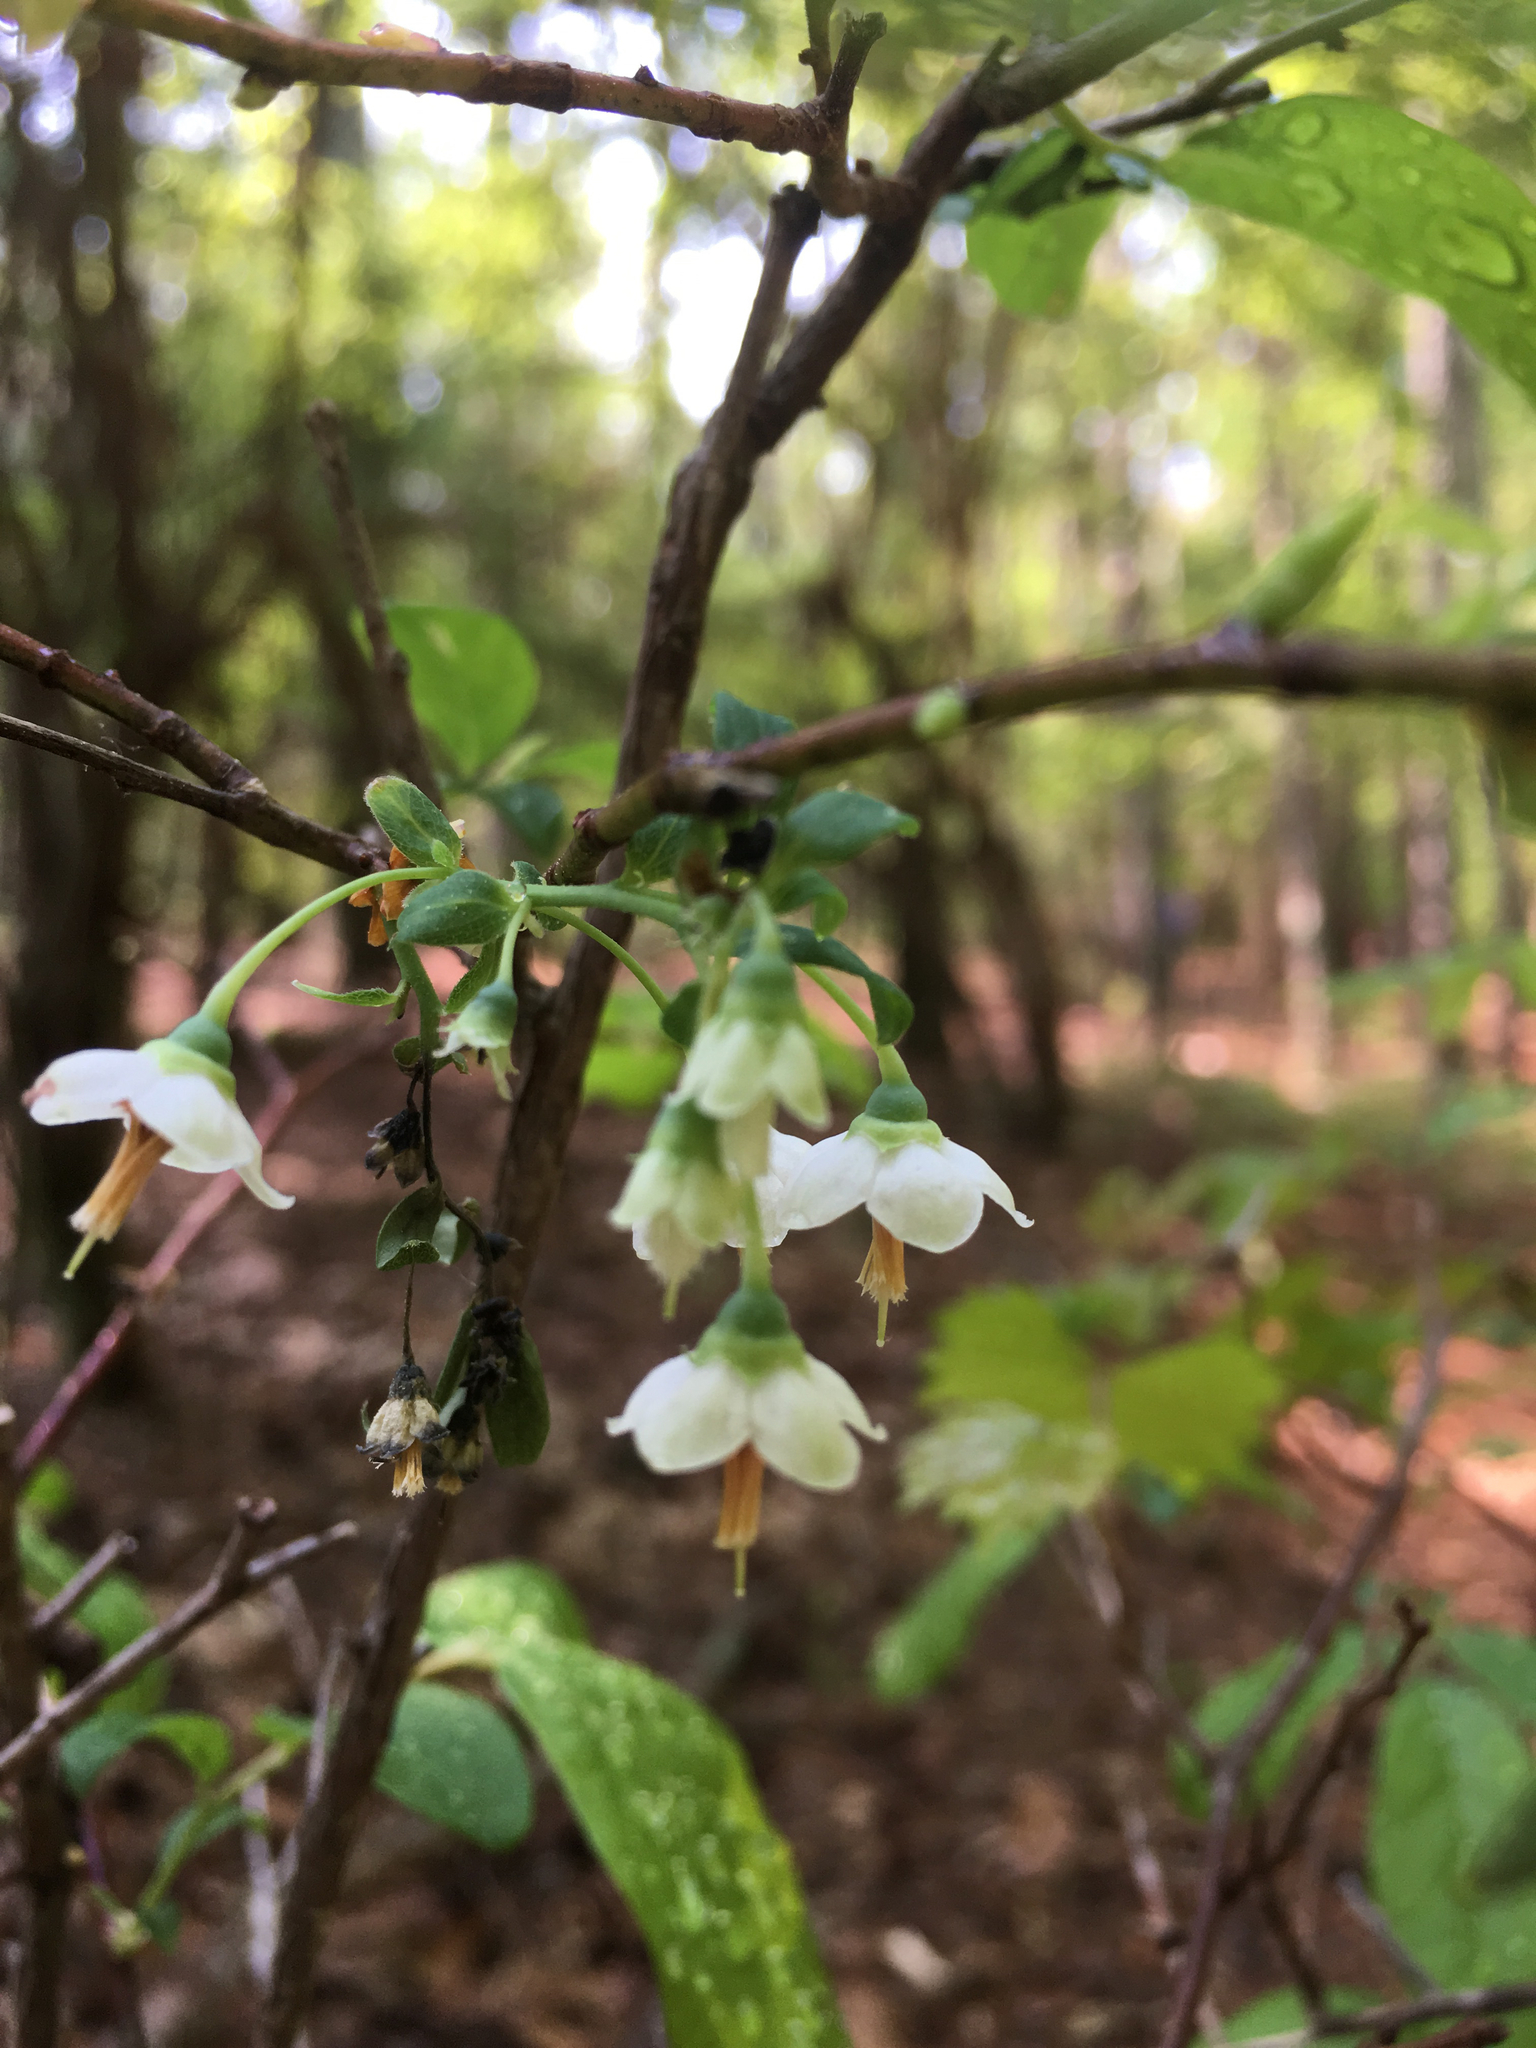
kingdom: Plantae
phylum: Tracheophyta
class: Magnoliopsida
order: Ericales
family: Ericaceae
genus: Vaccinium
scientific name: Vaccinium stamineum
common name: Deerberry
